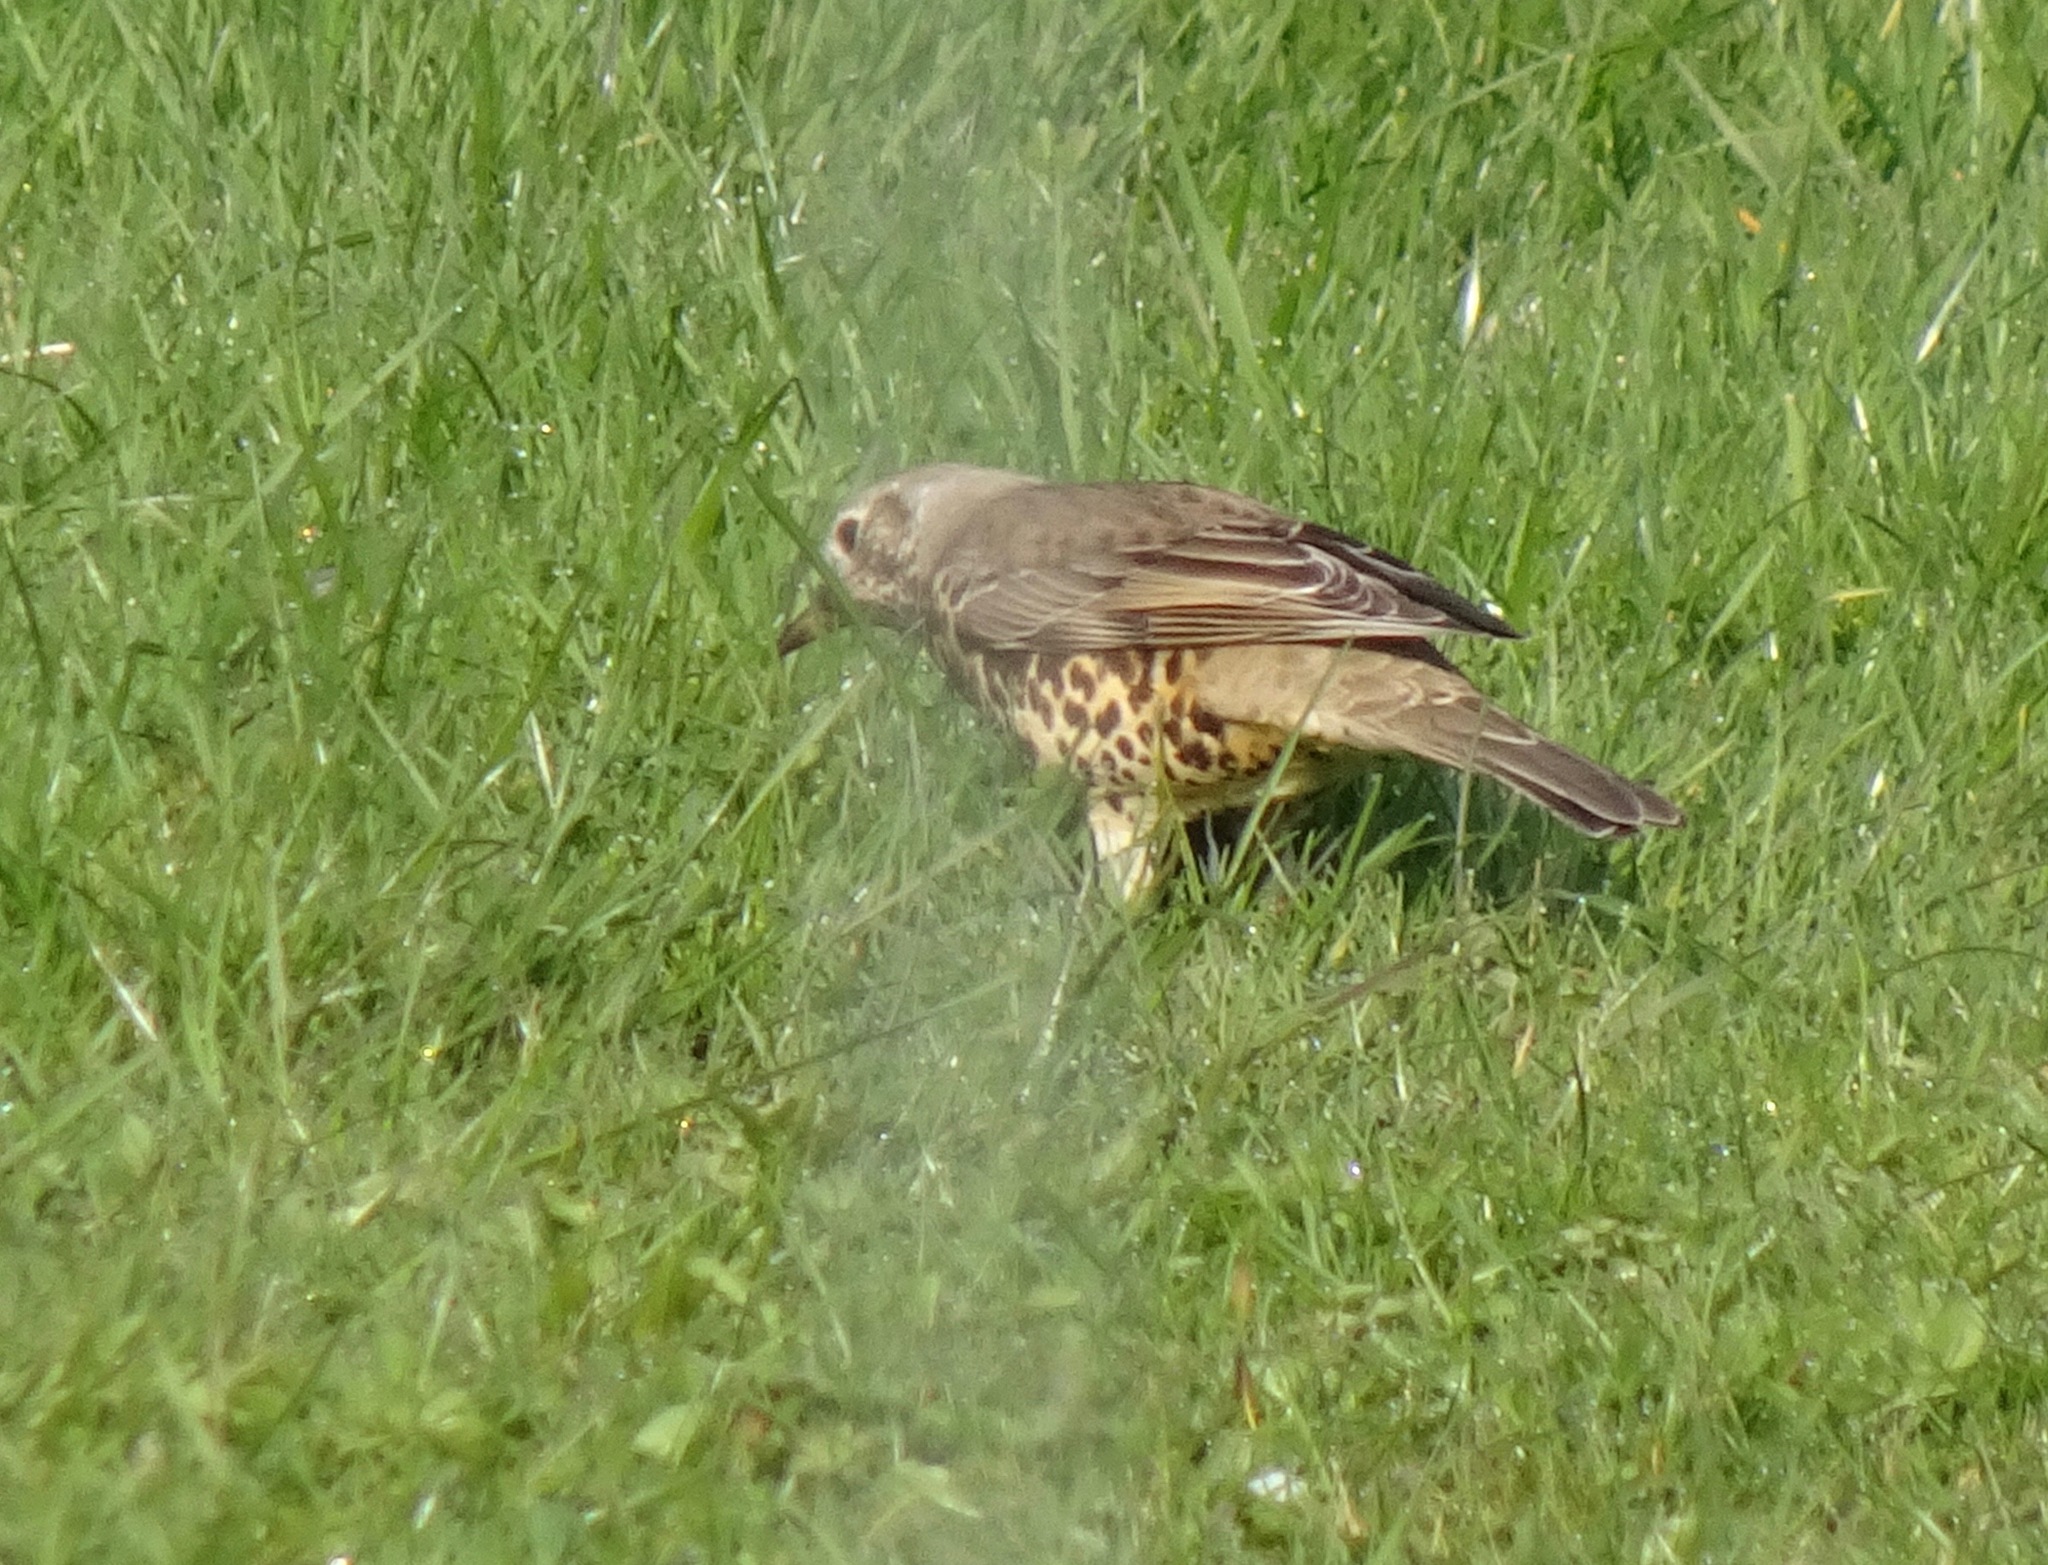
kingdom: Animalia
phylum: Chordata
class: Aves
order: Passeriformes
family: Turdidae
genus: Turdus
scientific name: Turdus viscivorus
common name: Mistle thrush
